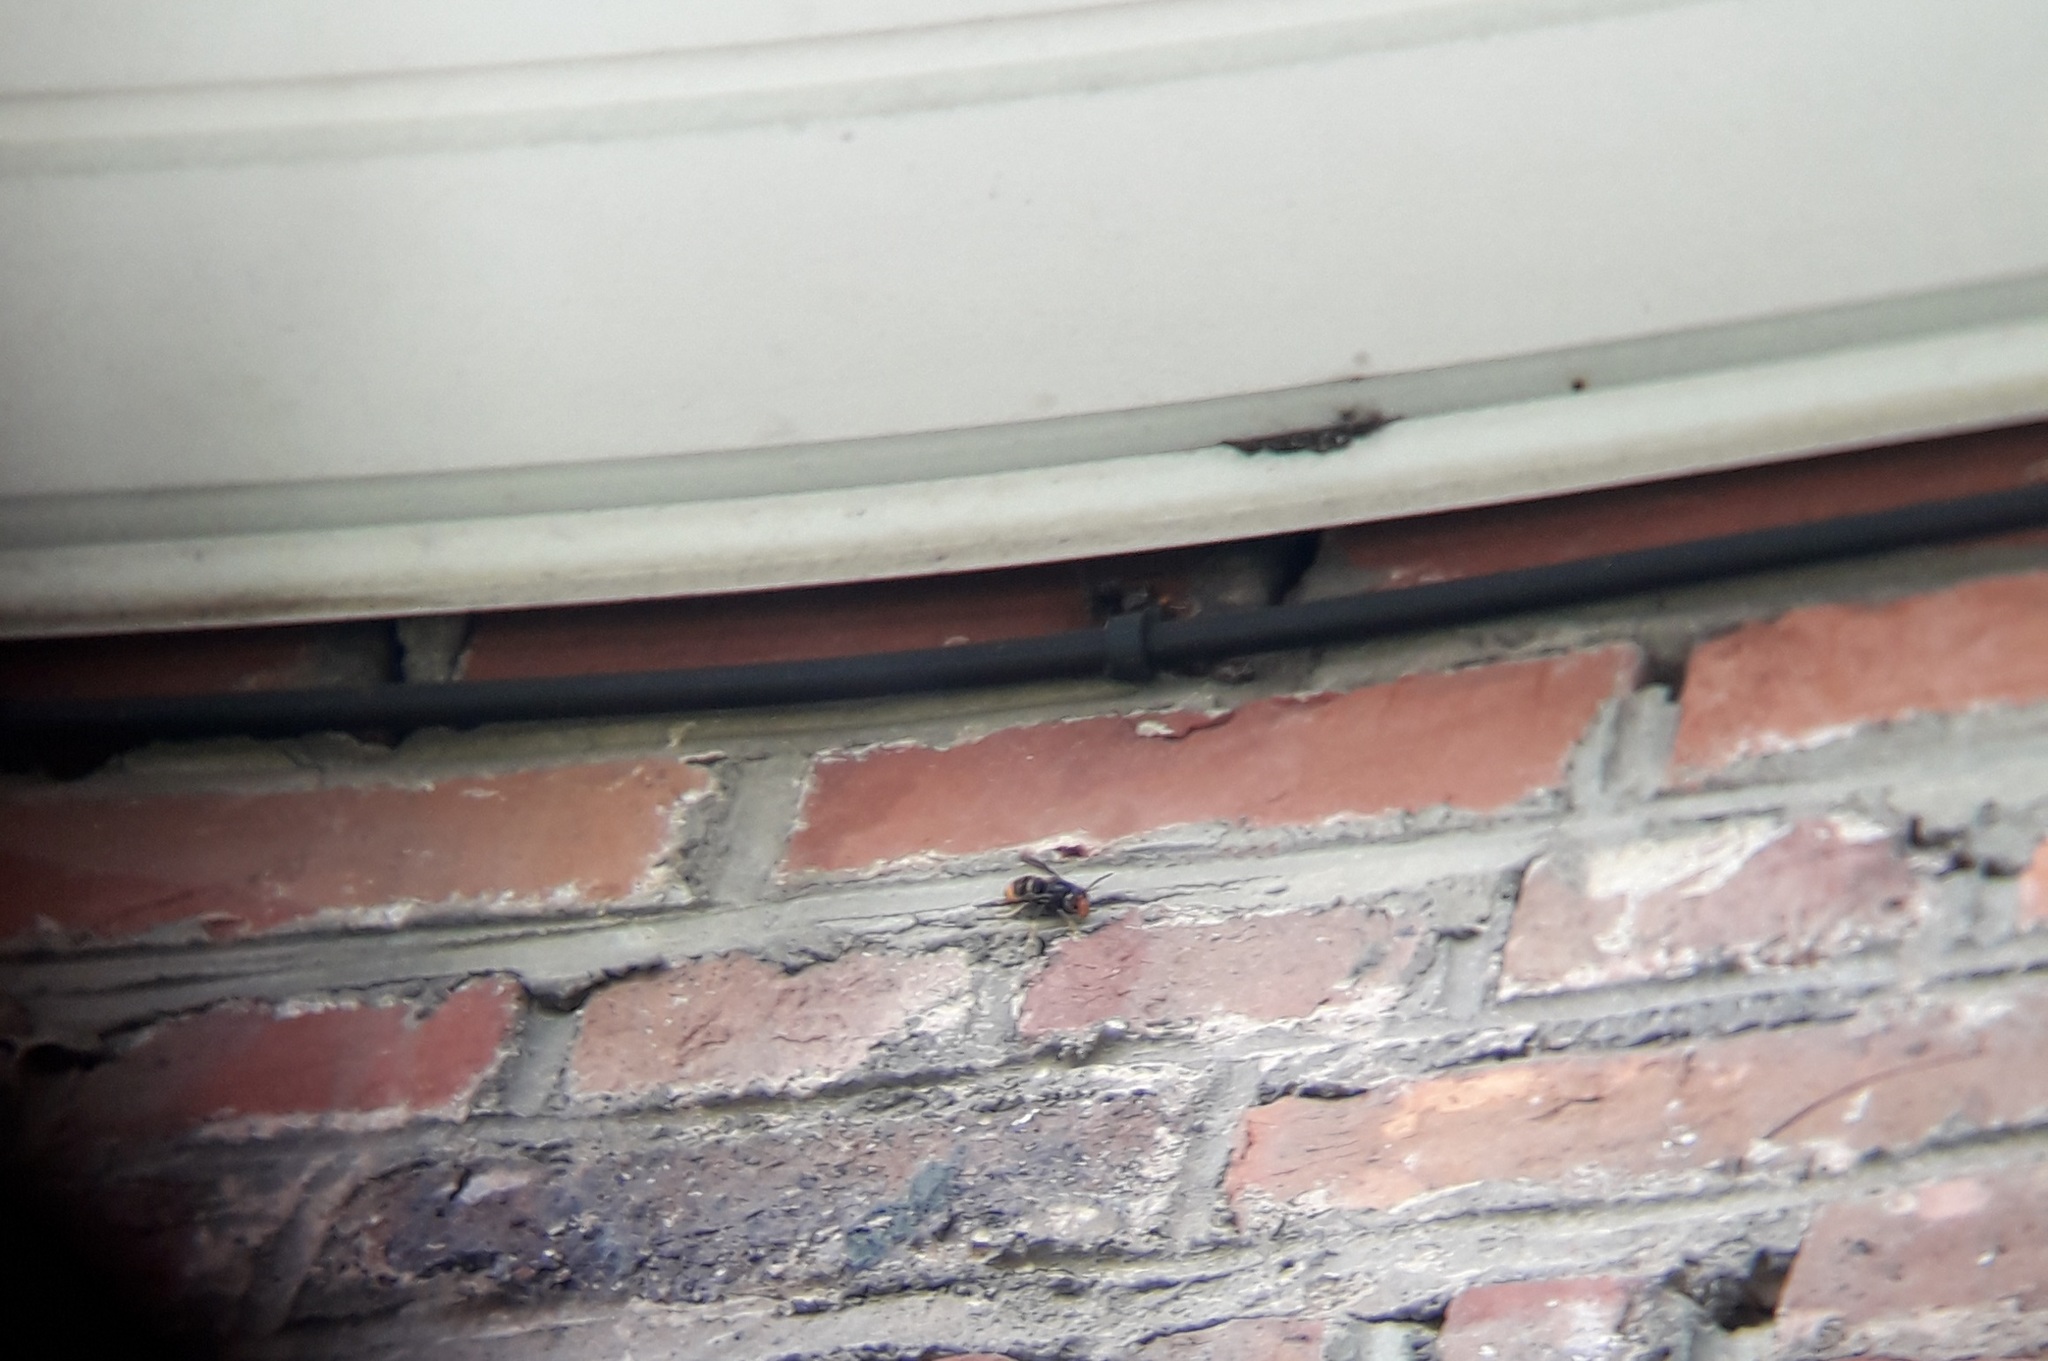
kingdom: Animalia
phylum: Arthropoda
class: Insecta
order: Hymenoptera
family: Vespidae
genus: Vespa
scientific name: Vespa velutina
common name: Asian hornet
